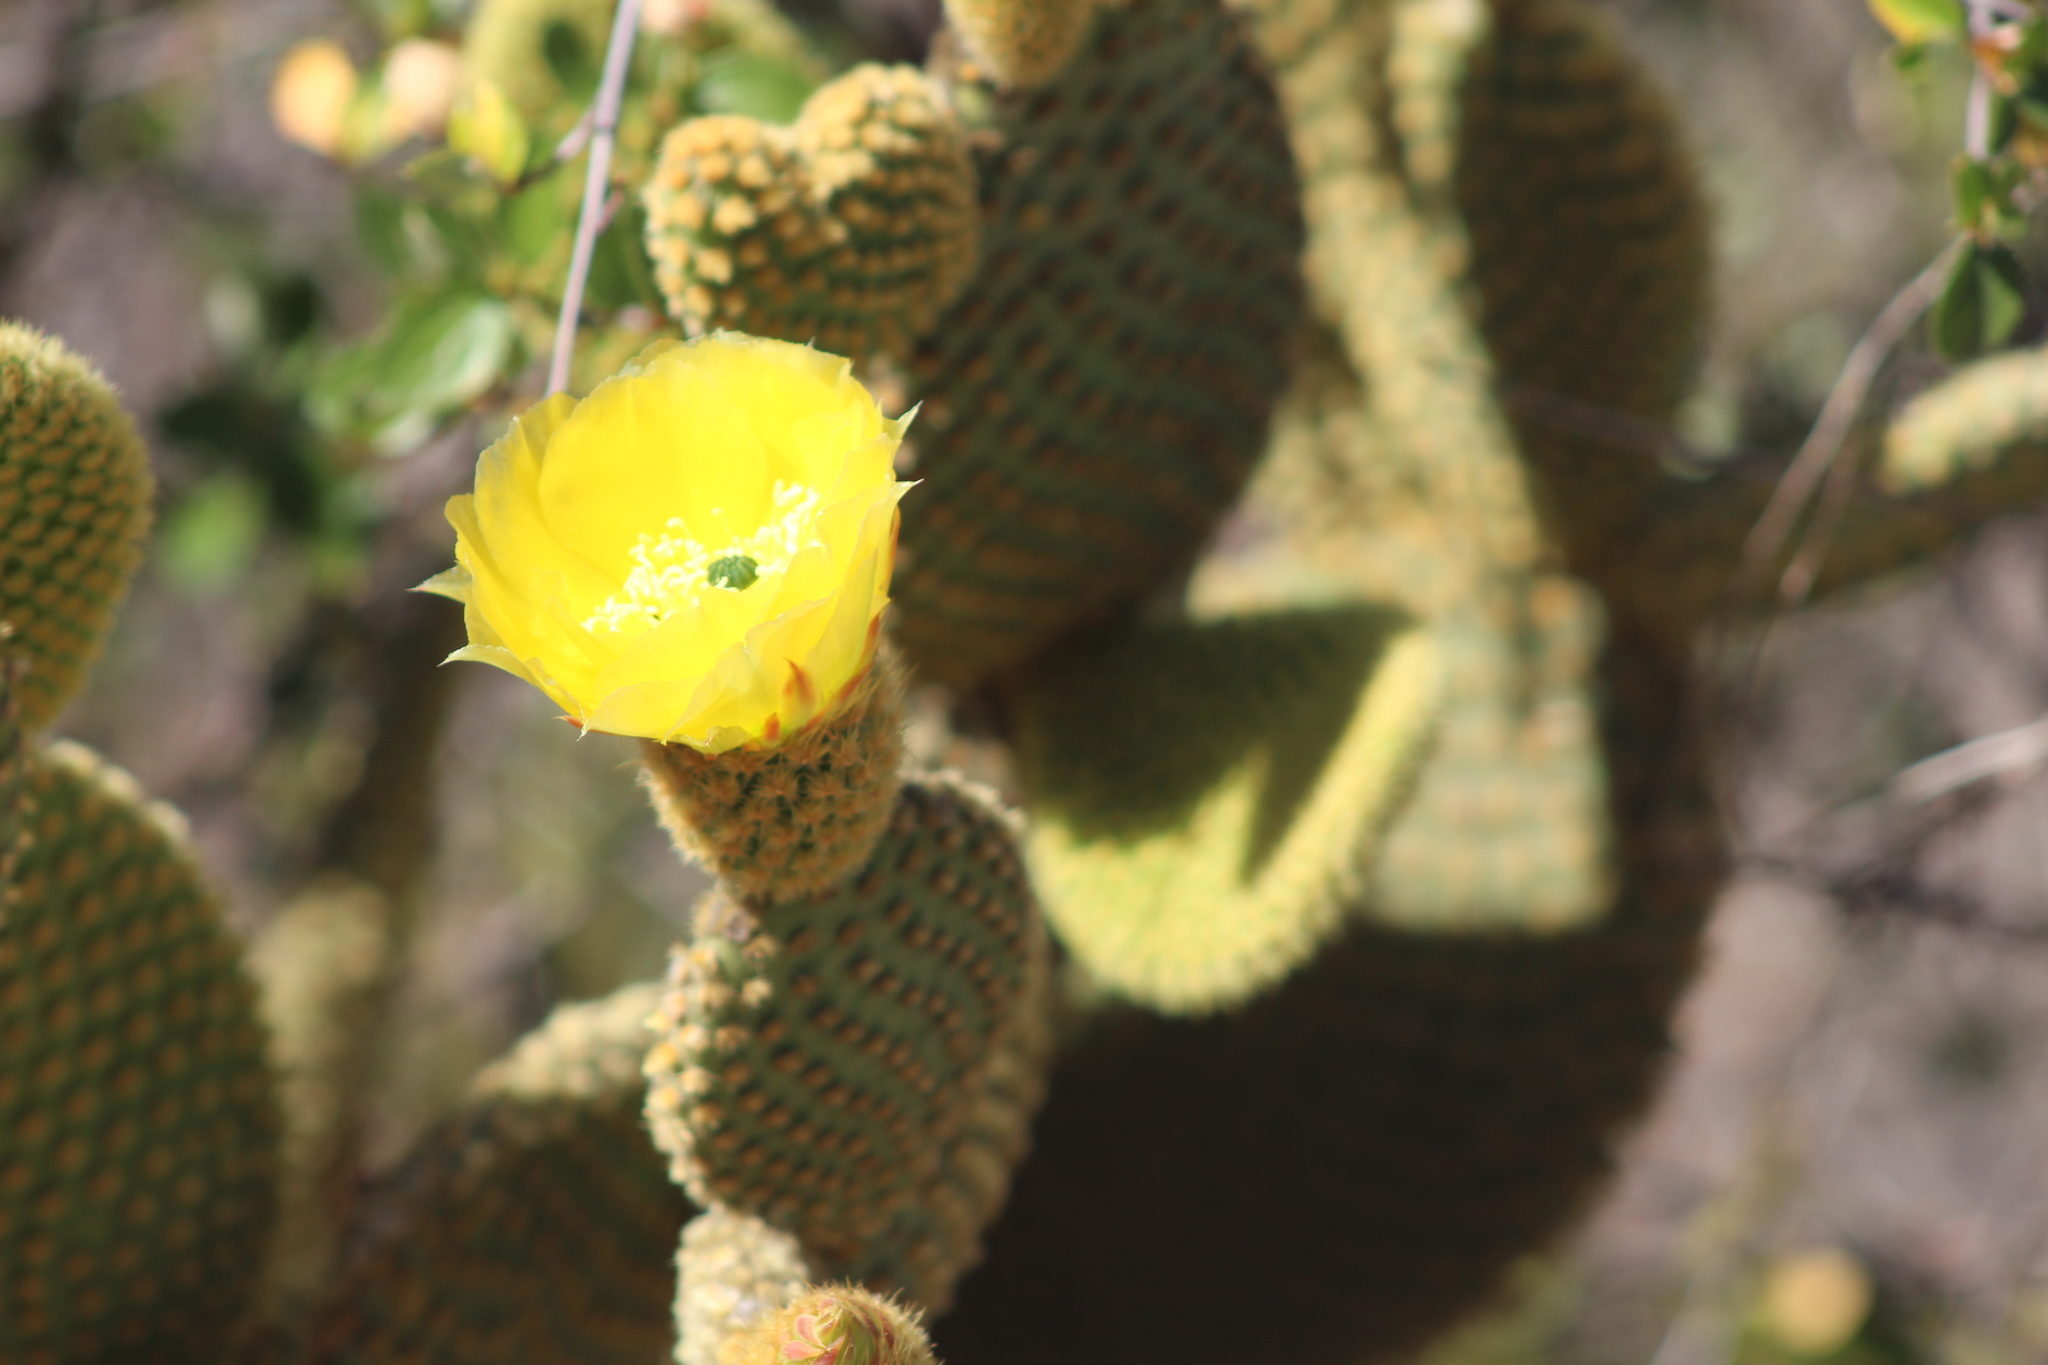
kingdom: Plantae
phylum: Tracheophyta
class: Magnoliopsida
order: Caryophyllales
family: Cactaceae
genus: Opuntia
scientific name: Opuntia microdasys
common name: Angel's-wings
